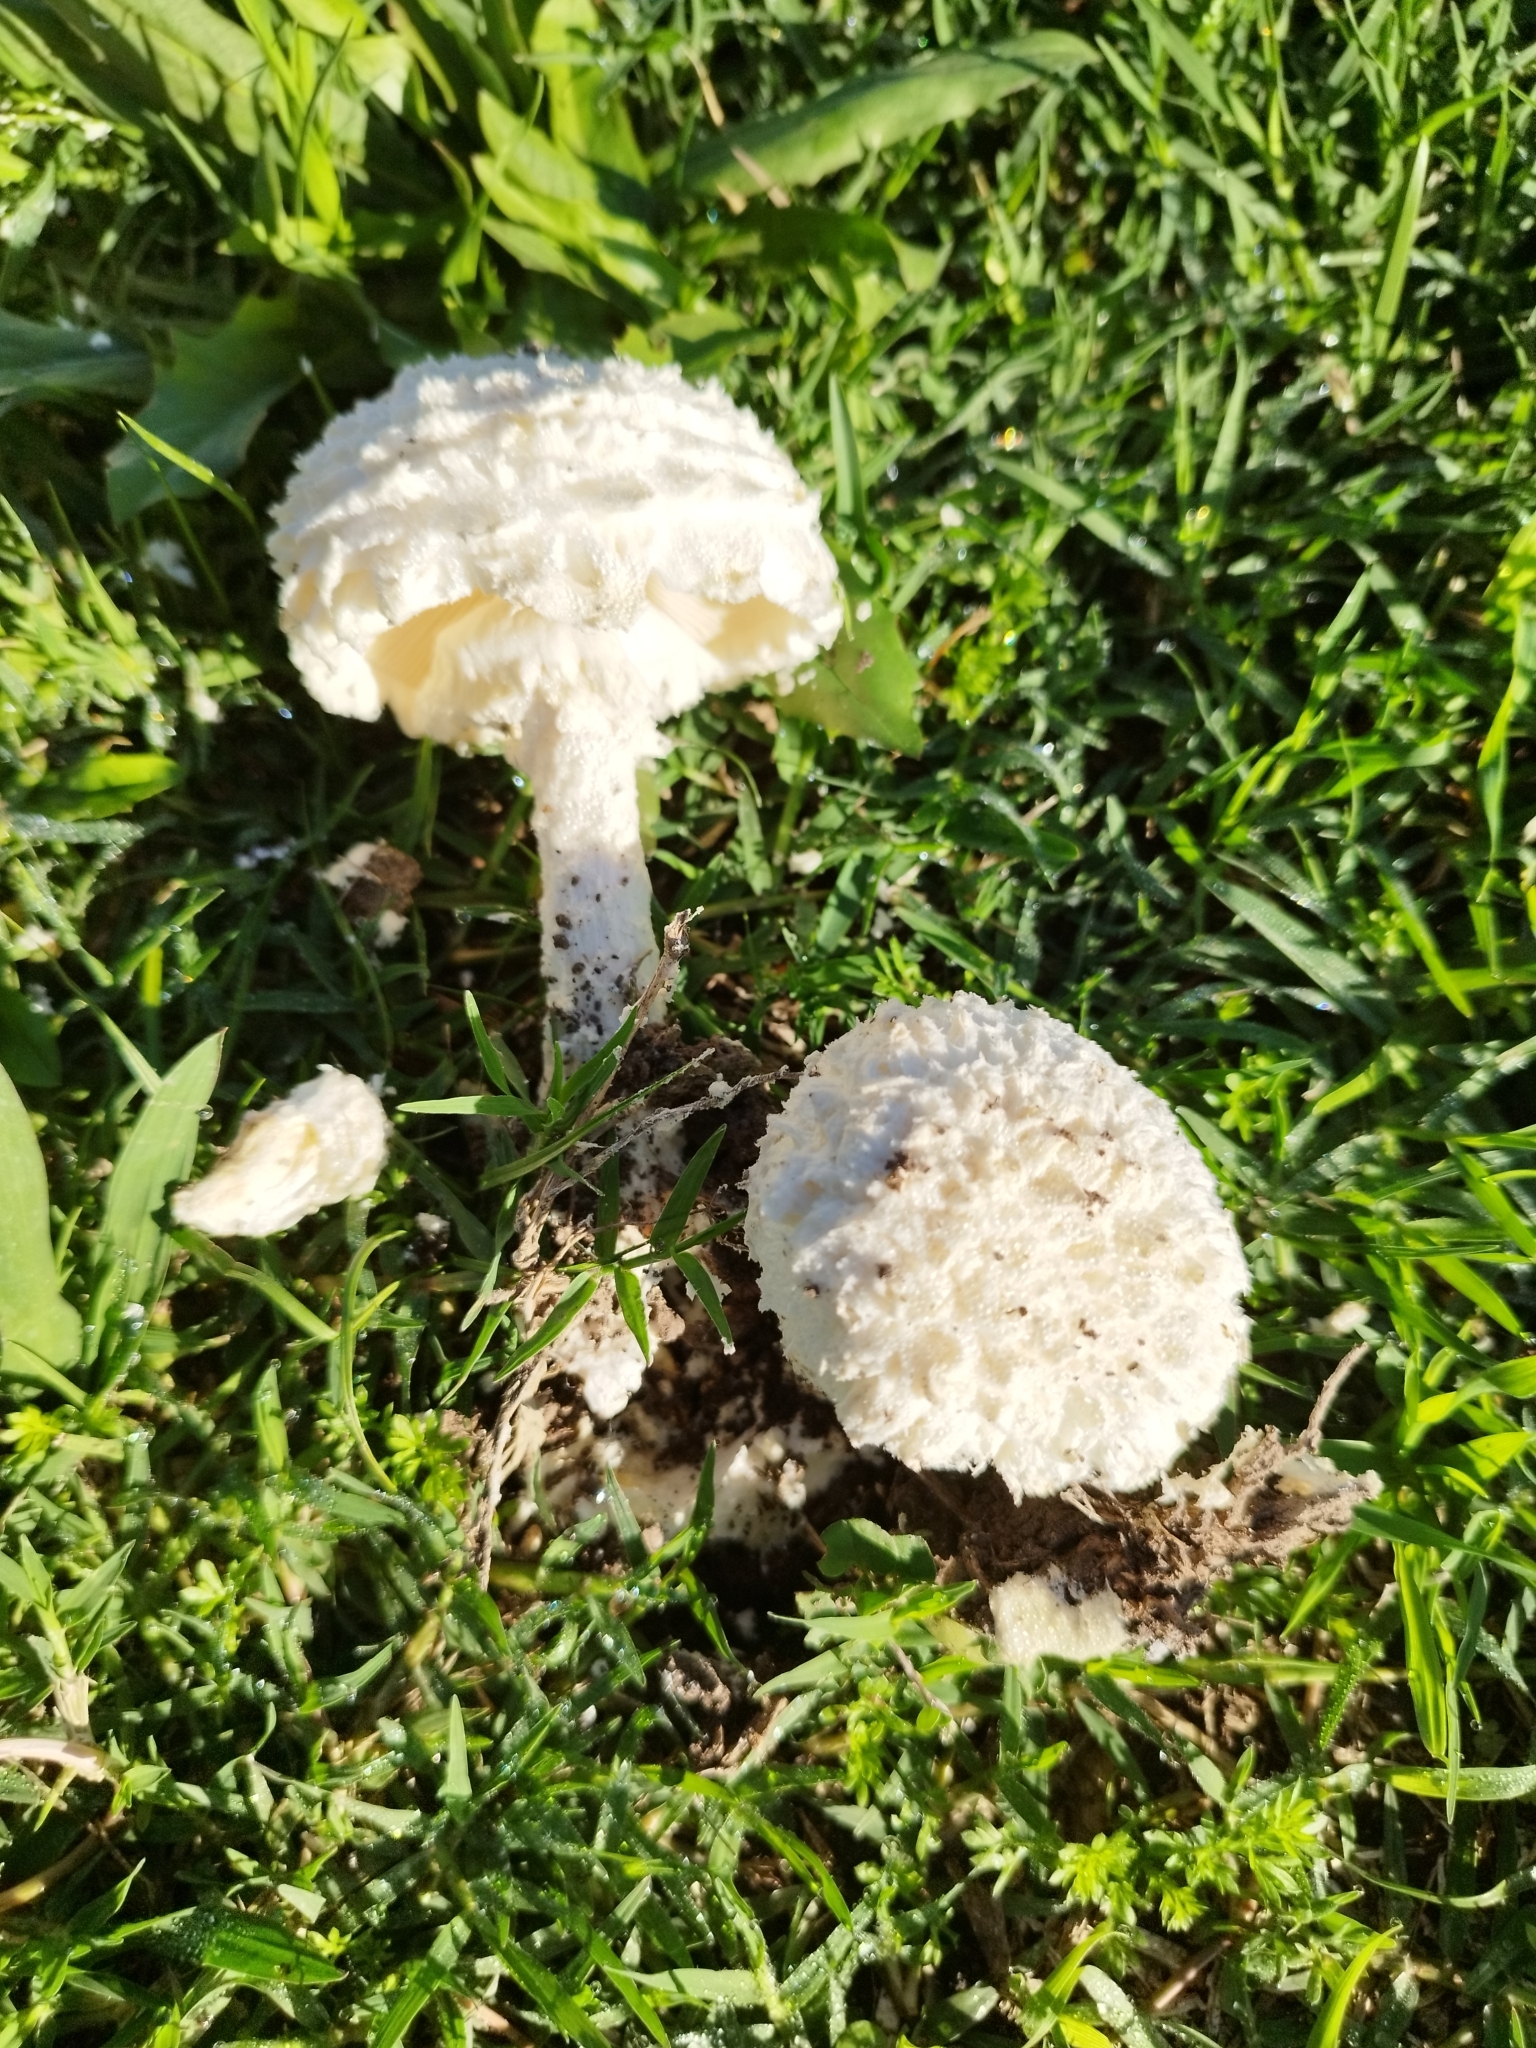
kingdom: Fungi
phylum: Basidiomycota
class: Agaricomycetes
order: Agaricales
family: Amanitaceae
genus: Aspidella
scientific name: Aspidella foetens
